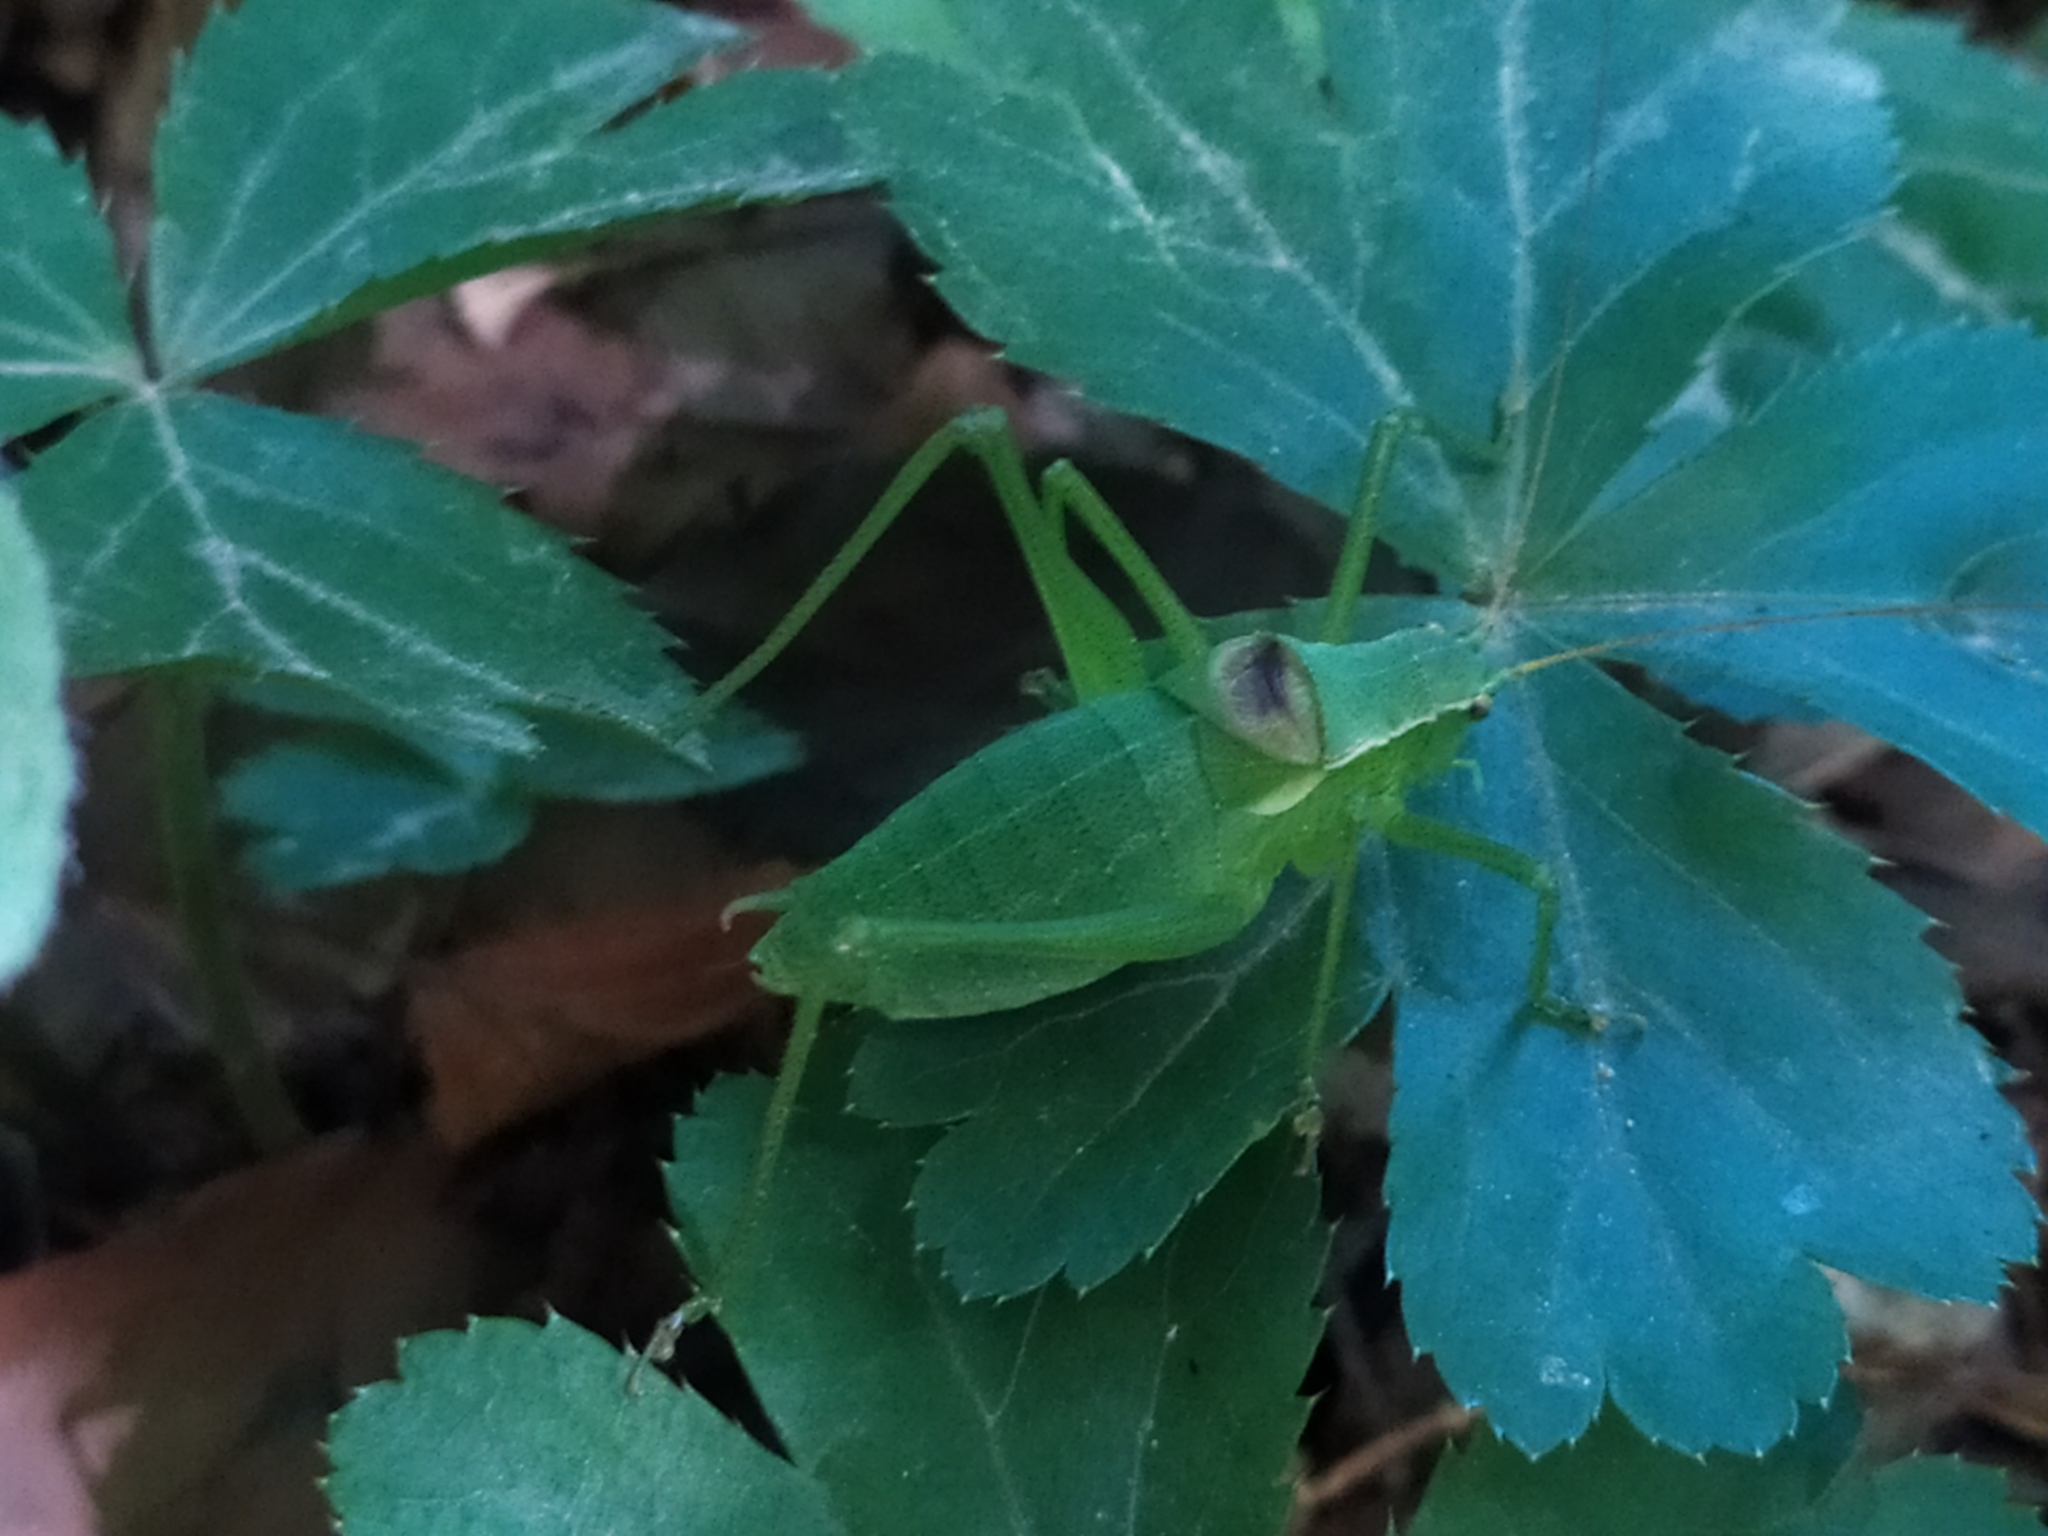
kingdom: Animalia
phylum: Arthropoda
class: Insecta
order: Orthoptera
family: Tettigoniidae
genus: Isophya
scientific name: Isophya kraussii
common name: Krauss's plump bush-cricket
